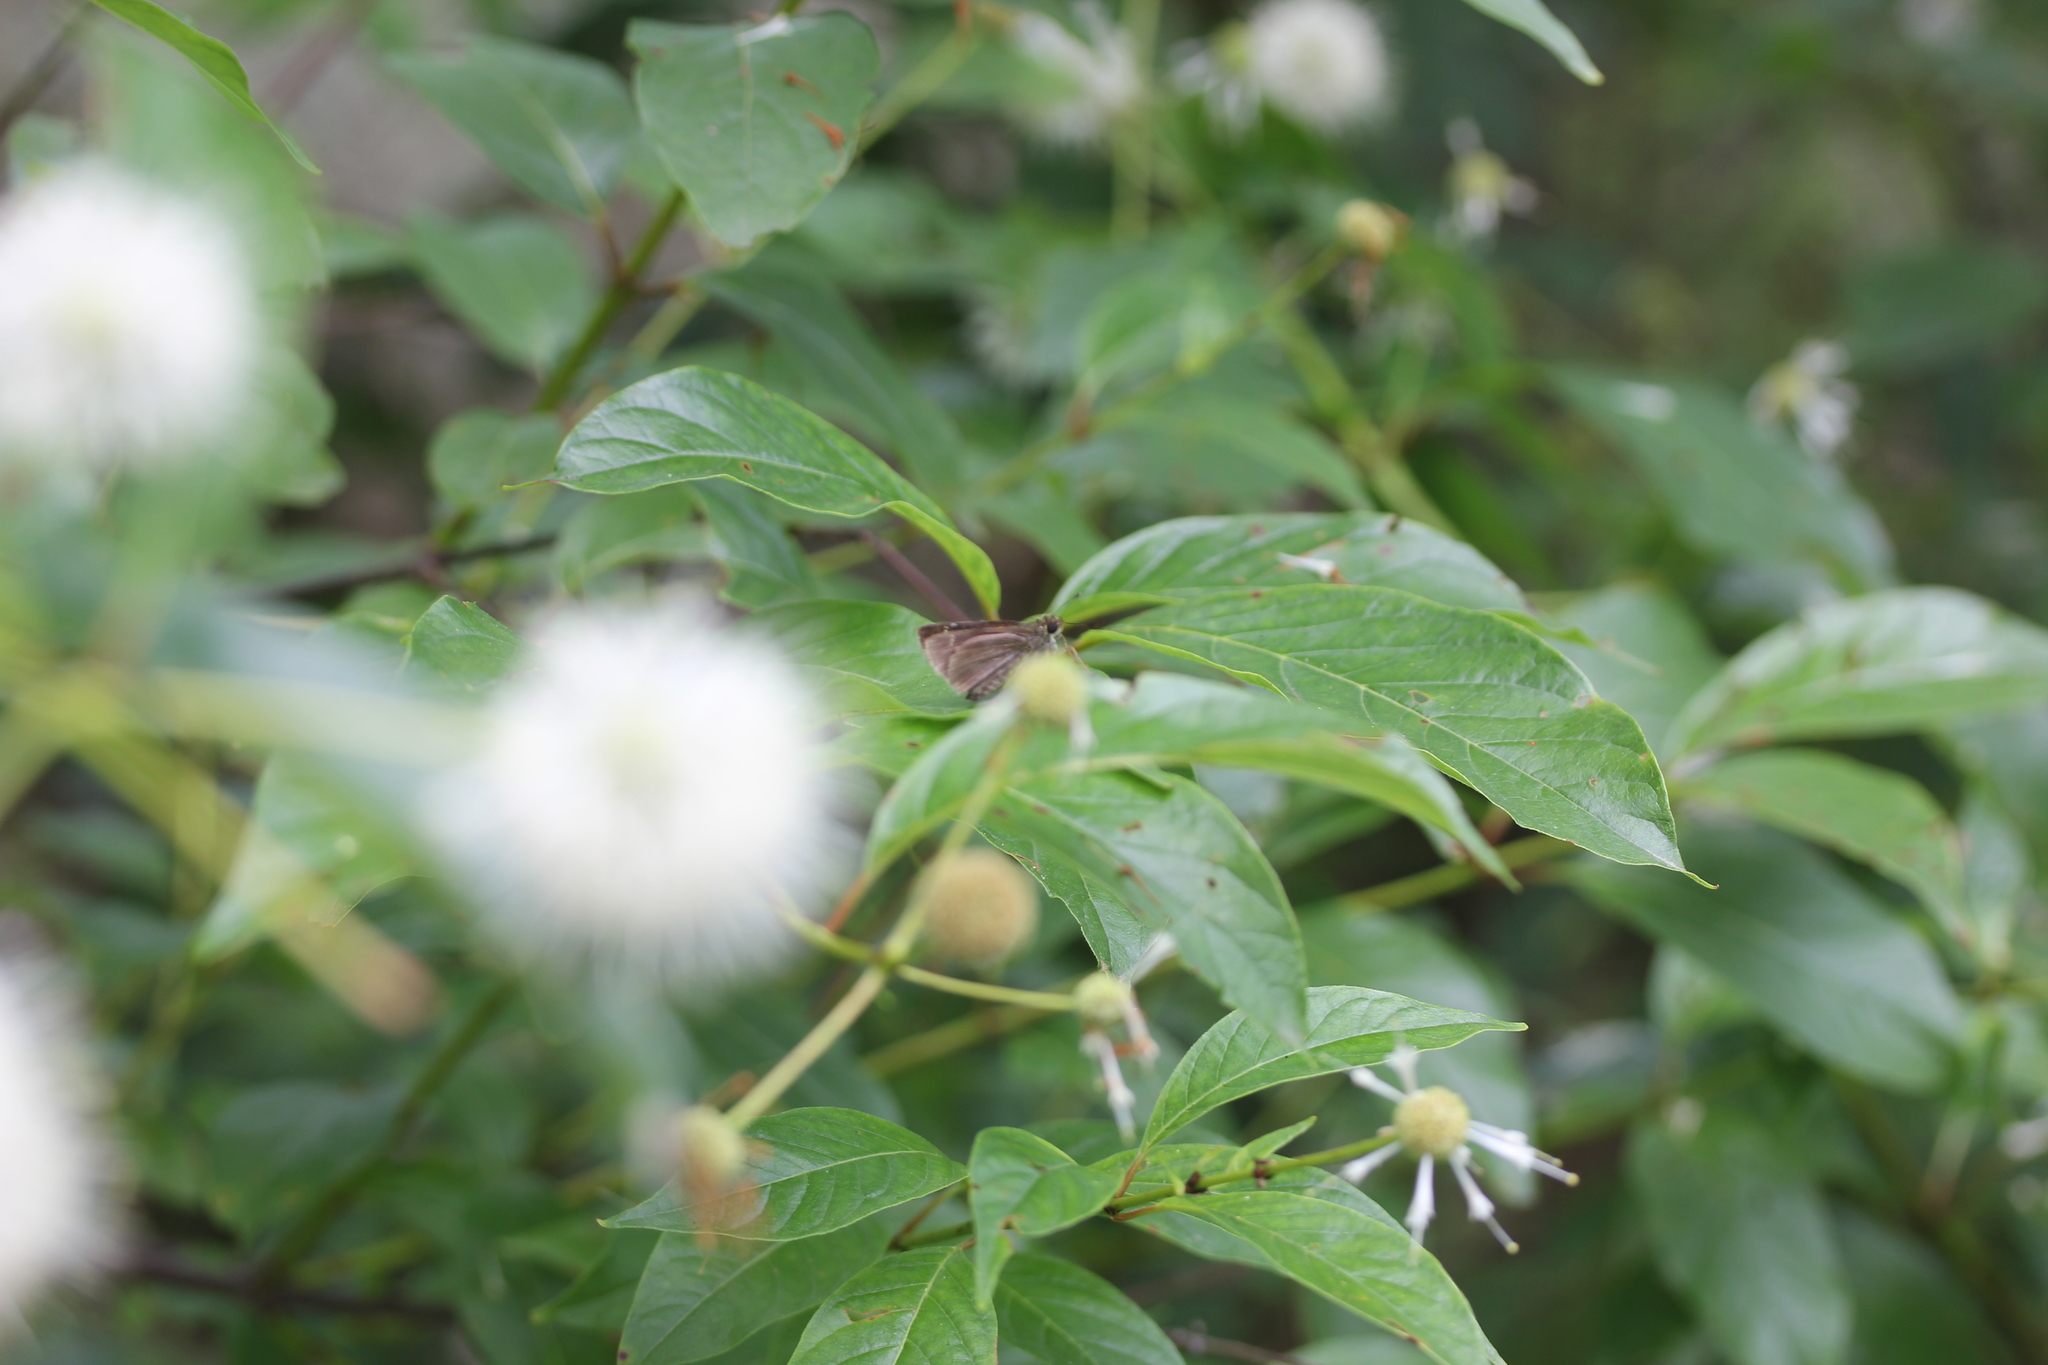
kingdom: Plantae
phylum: Tracheophyta
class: Magnoliopsida
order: Gentianales
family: Rubiaceae
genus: Cephalanthus
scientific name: Cephalanthus occidentalis
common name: Button-willow
